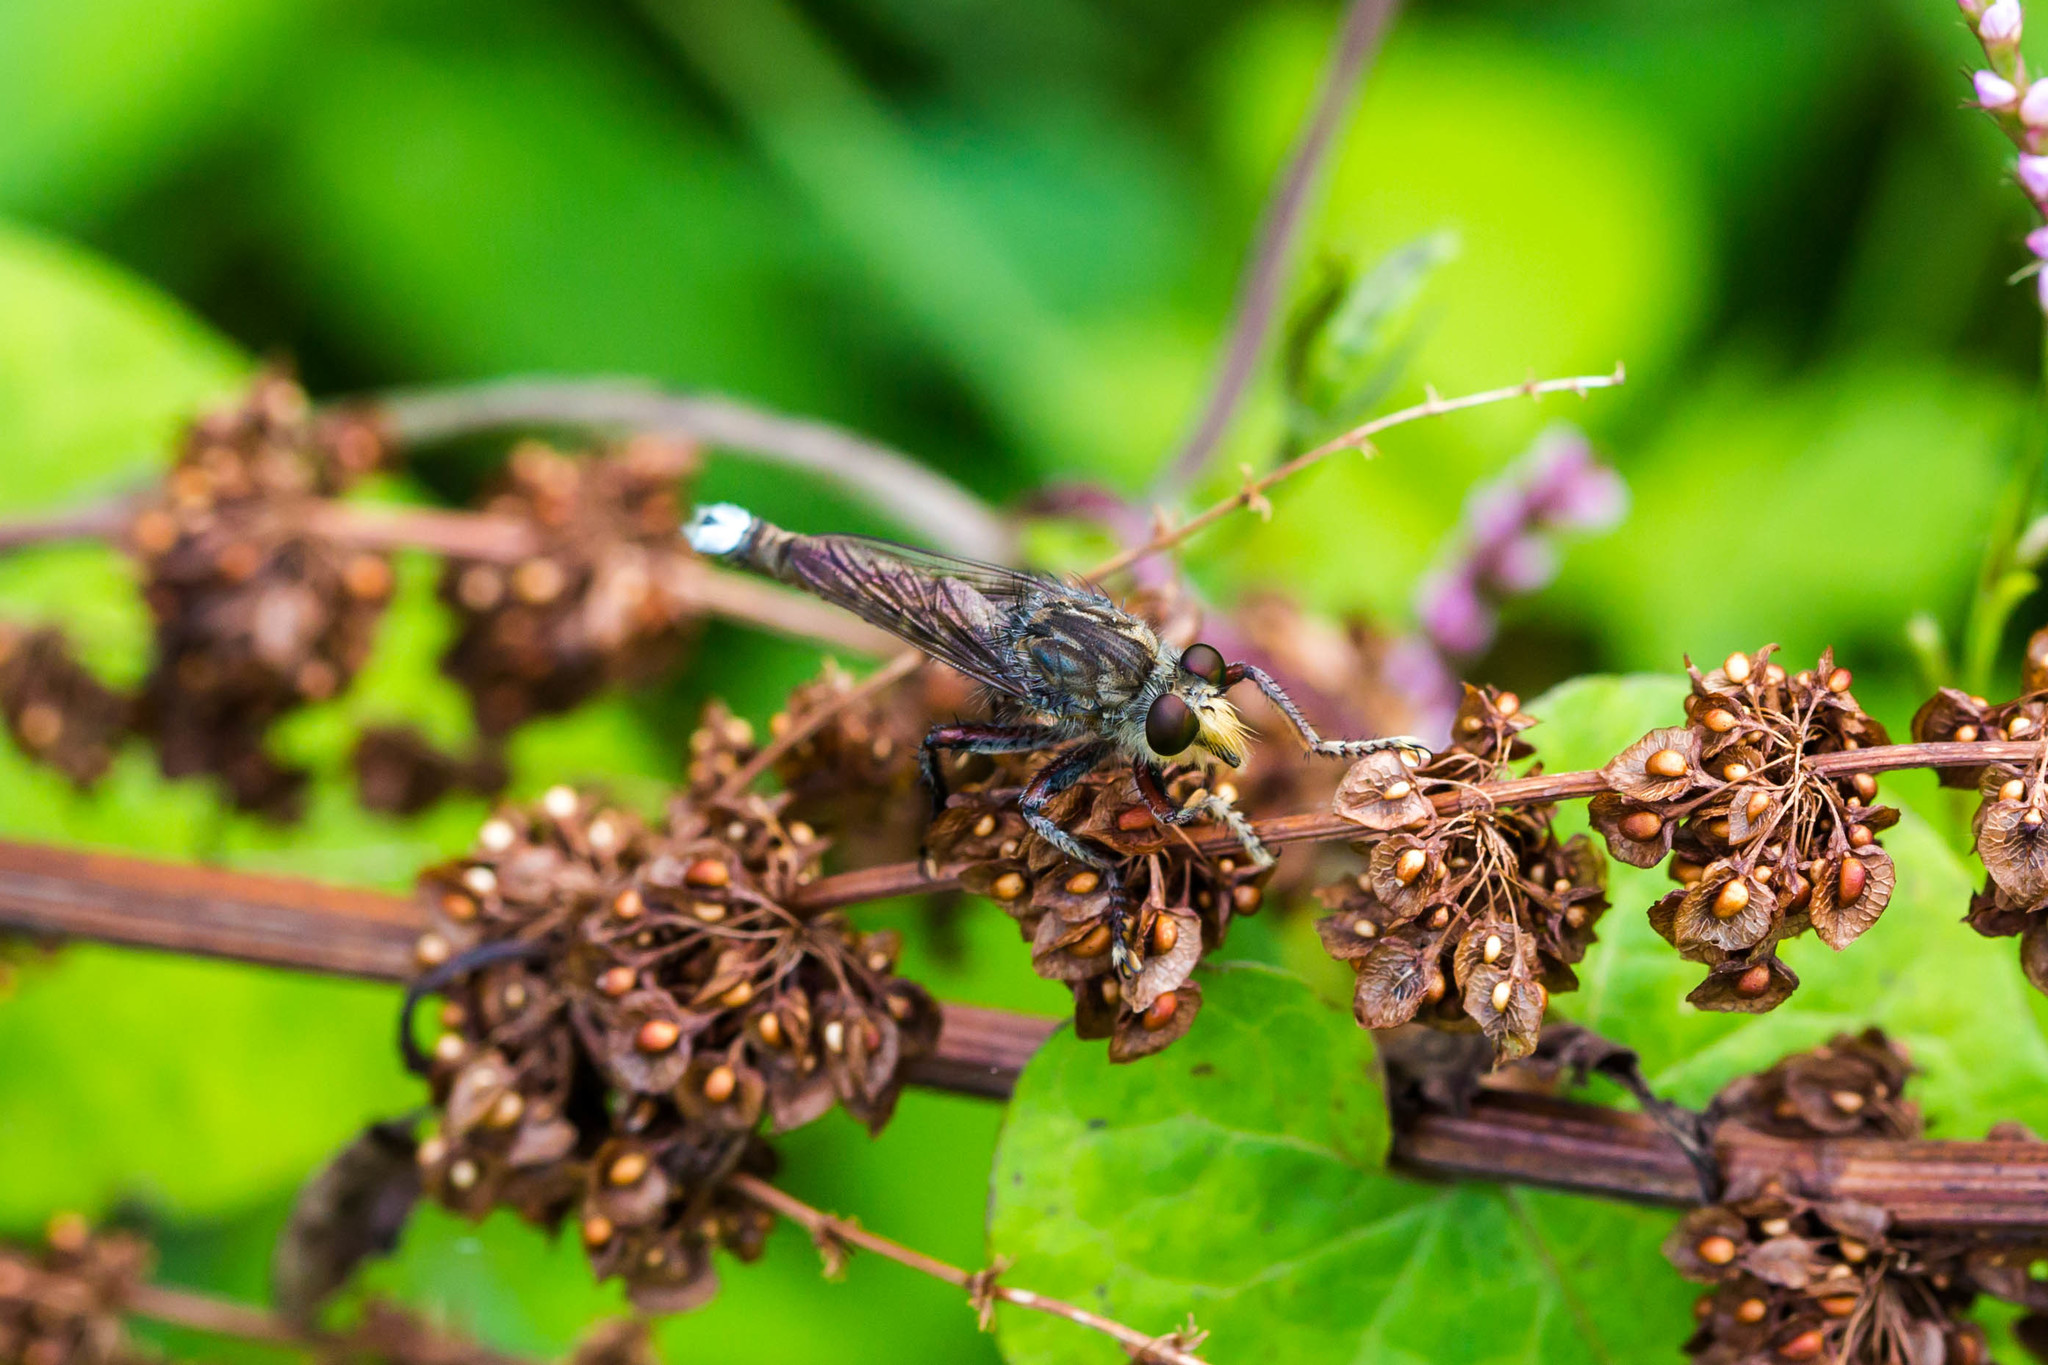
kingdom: Animalia
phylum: Arthropoda
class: Insecta
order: Diptera
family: Asilidae
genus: Promachus
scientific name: Promachus bastardii
